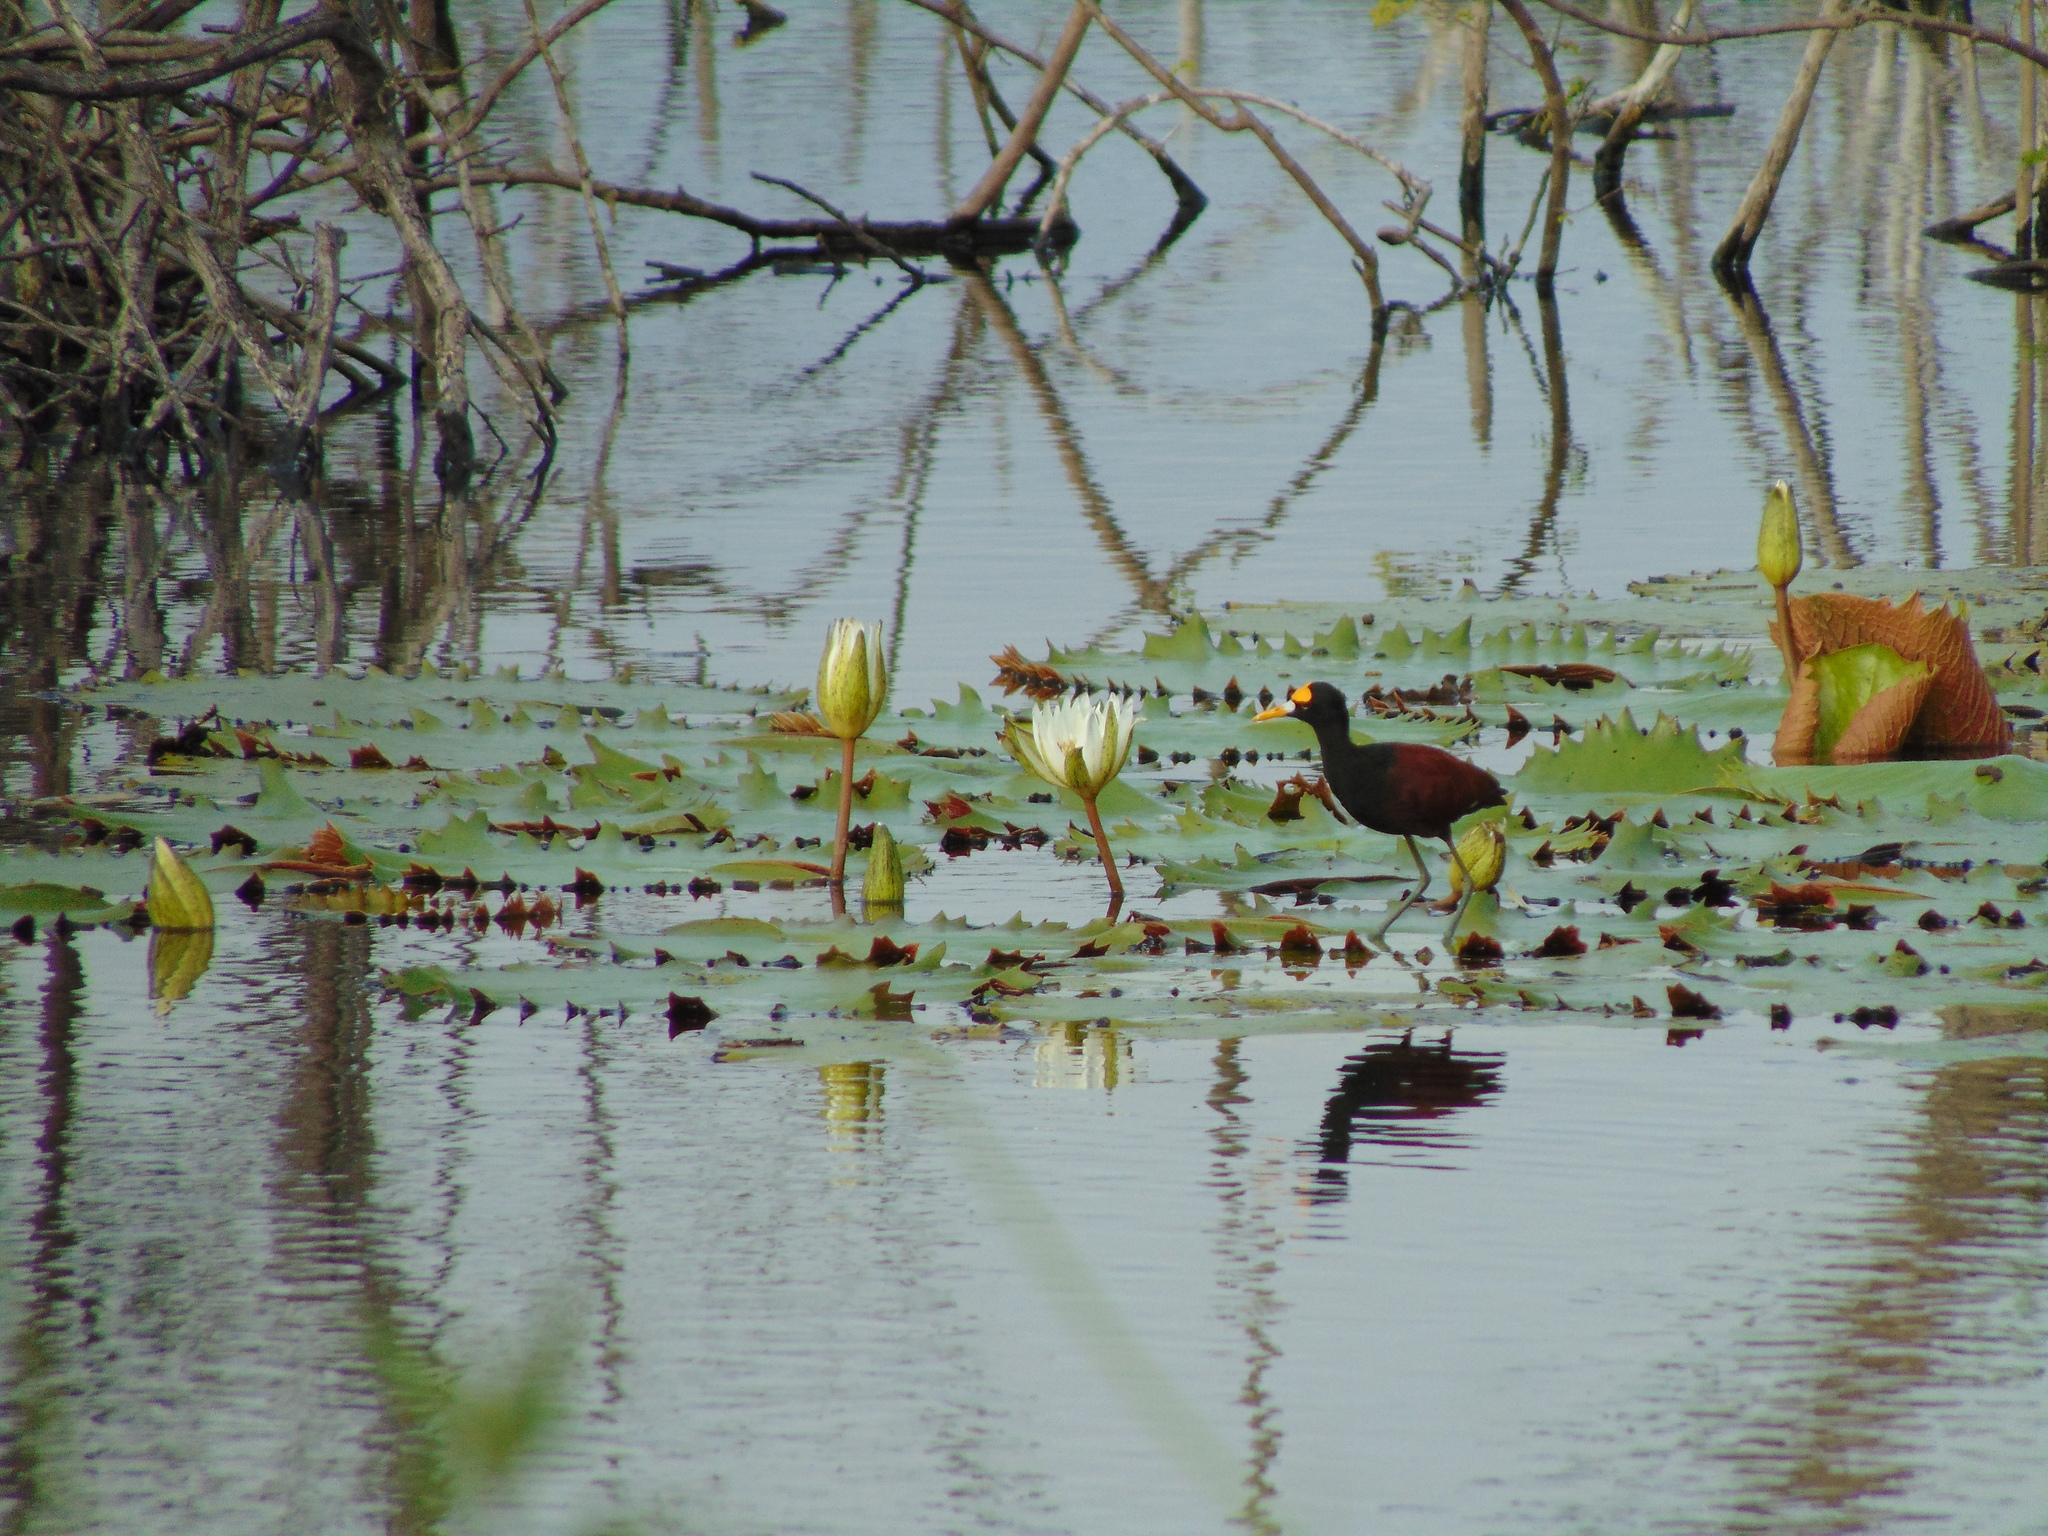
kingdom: Animalia
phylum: Chordata
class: Aves
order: Charadriiformes
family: Jacanidae
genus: Jacana
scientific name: Jacana spinosa
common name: Northern jacana
